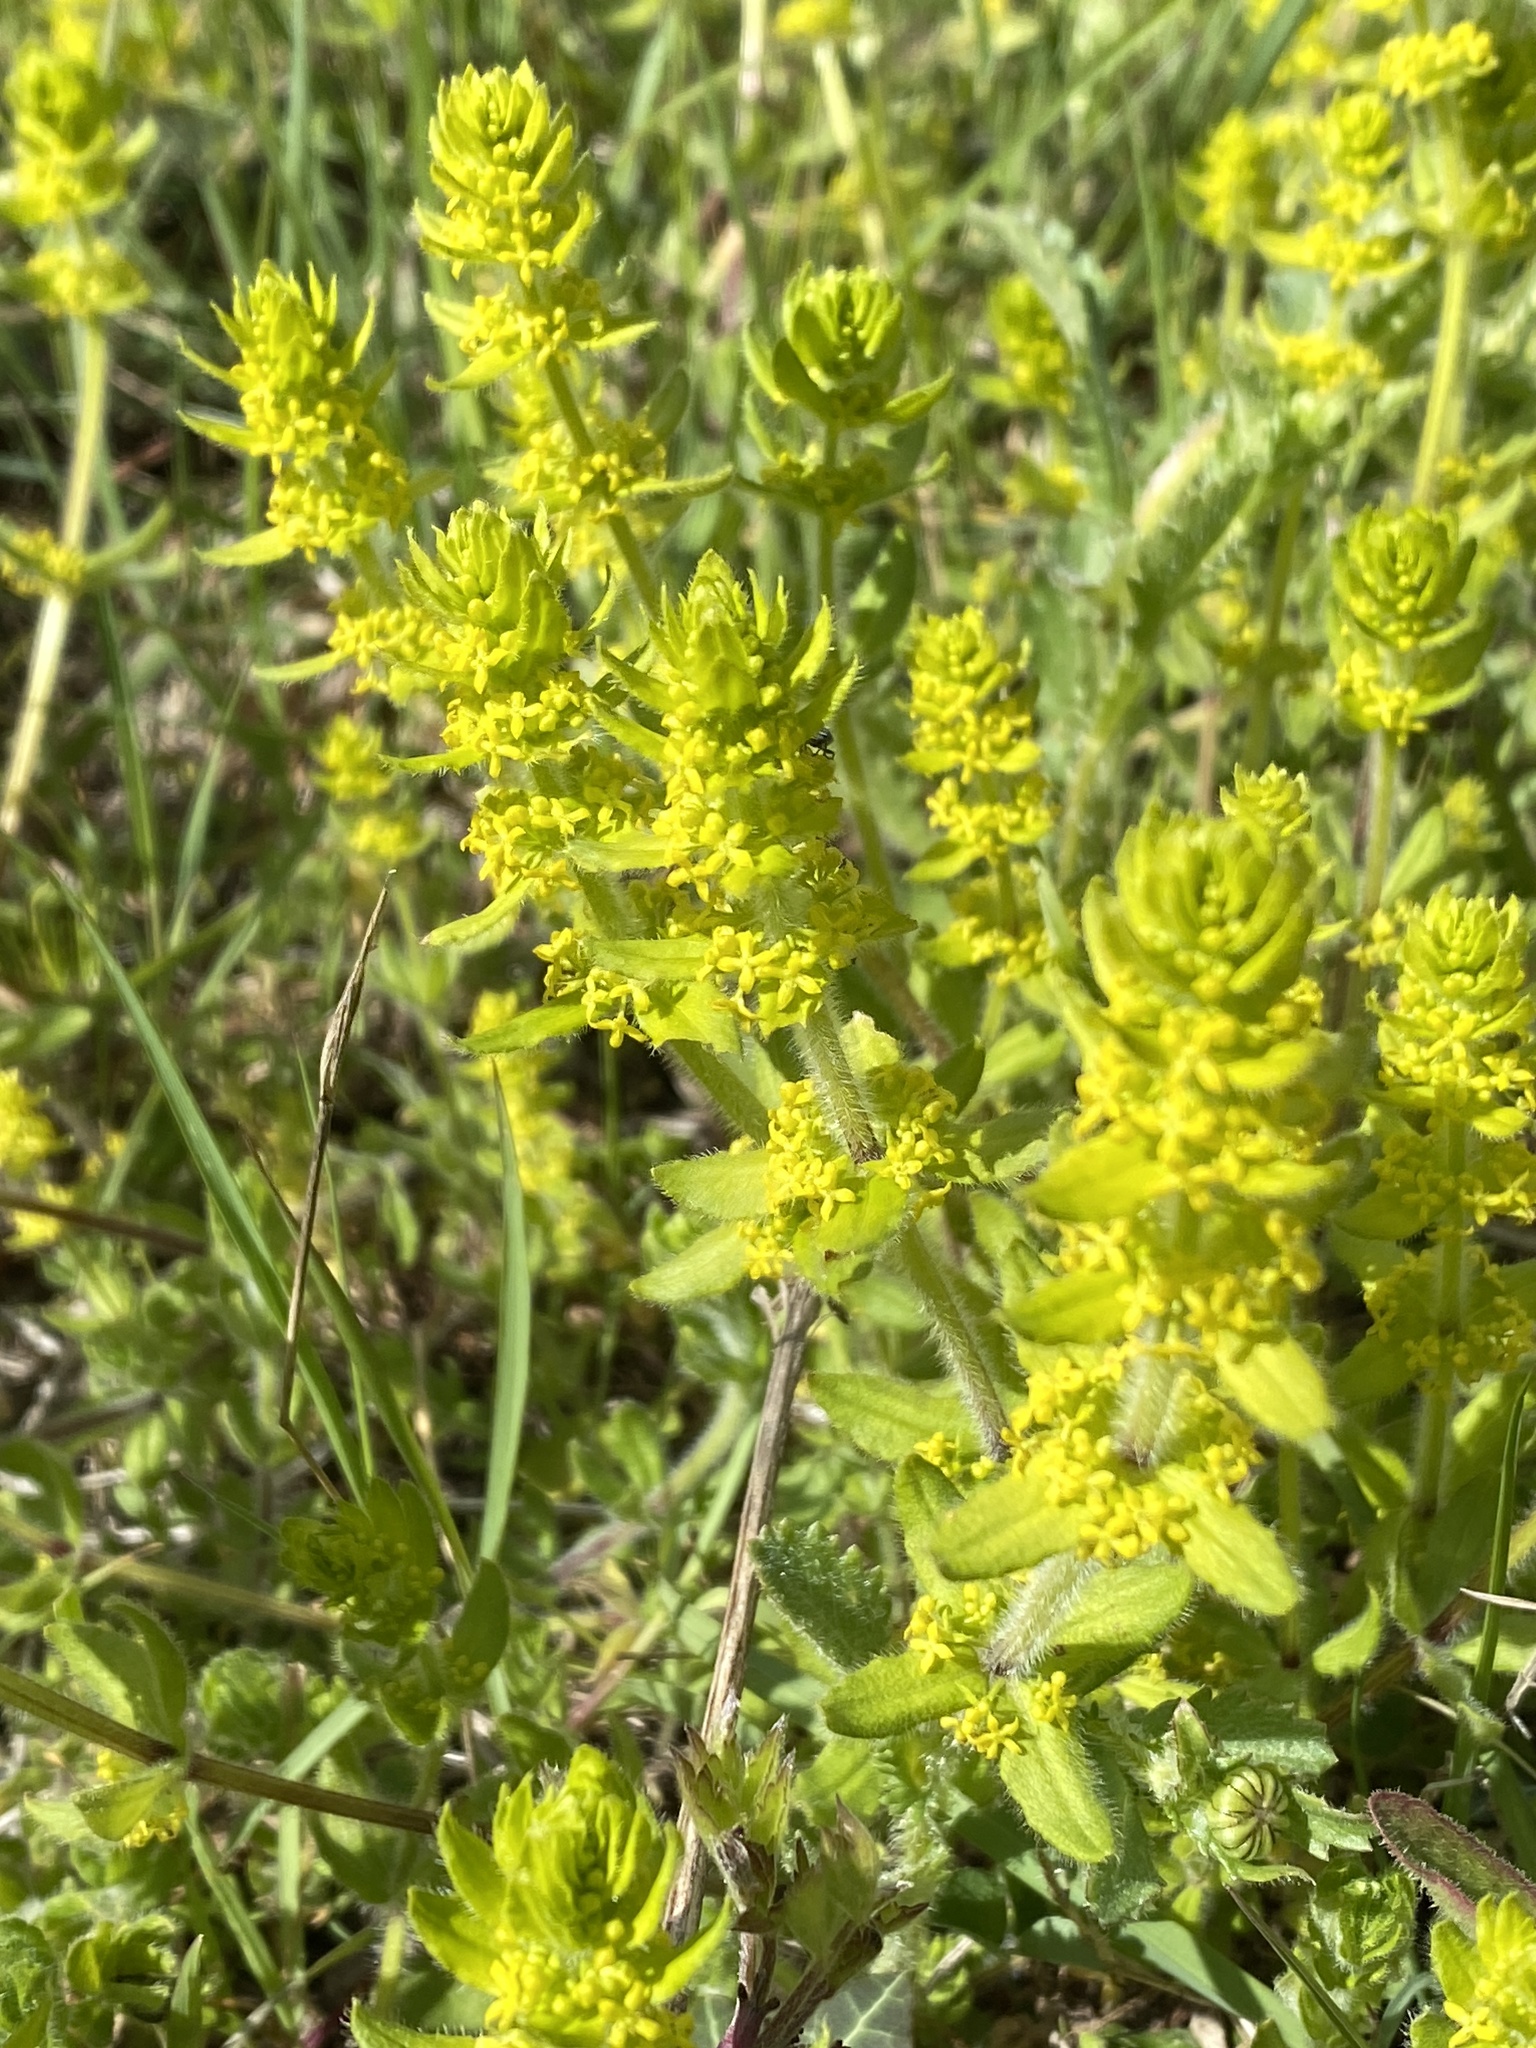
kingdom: Plantae
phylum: Tracheophyta
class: Magnoliopsida
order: Gentianales
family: Rubiaceae
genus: Cruciata
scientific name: Cruciata laevipes
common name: Crosswort
